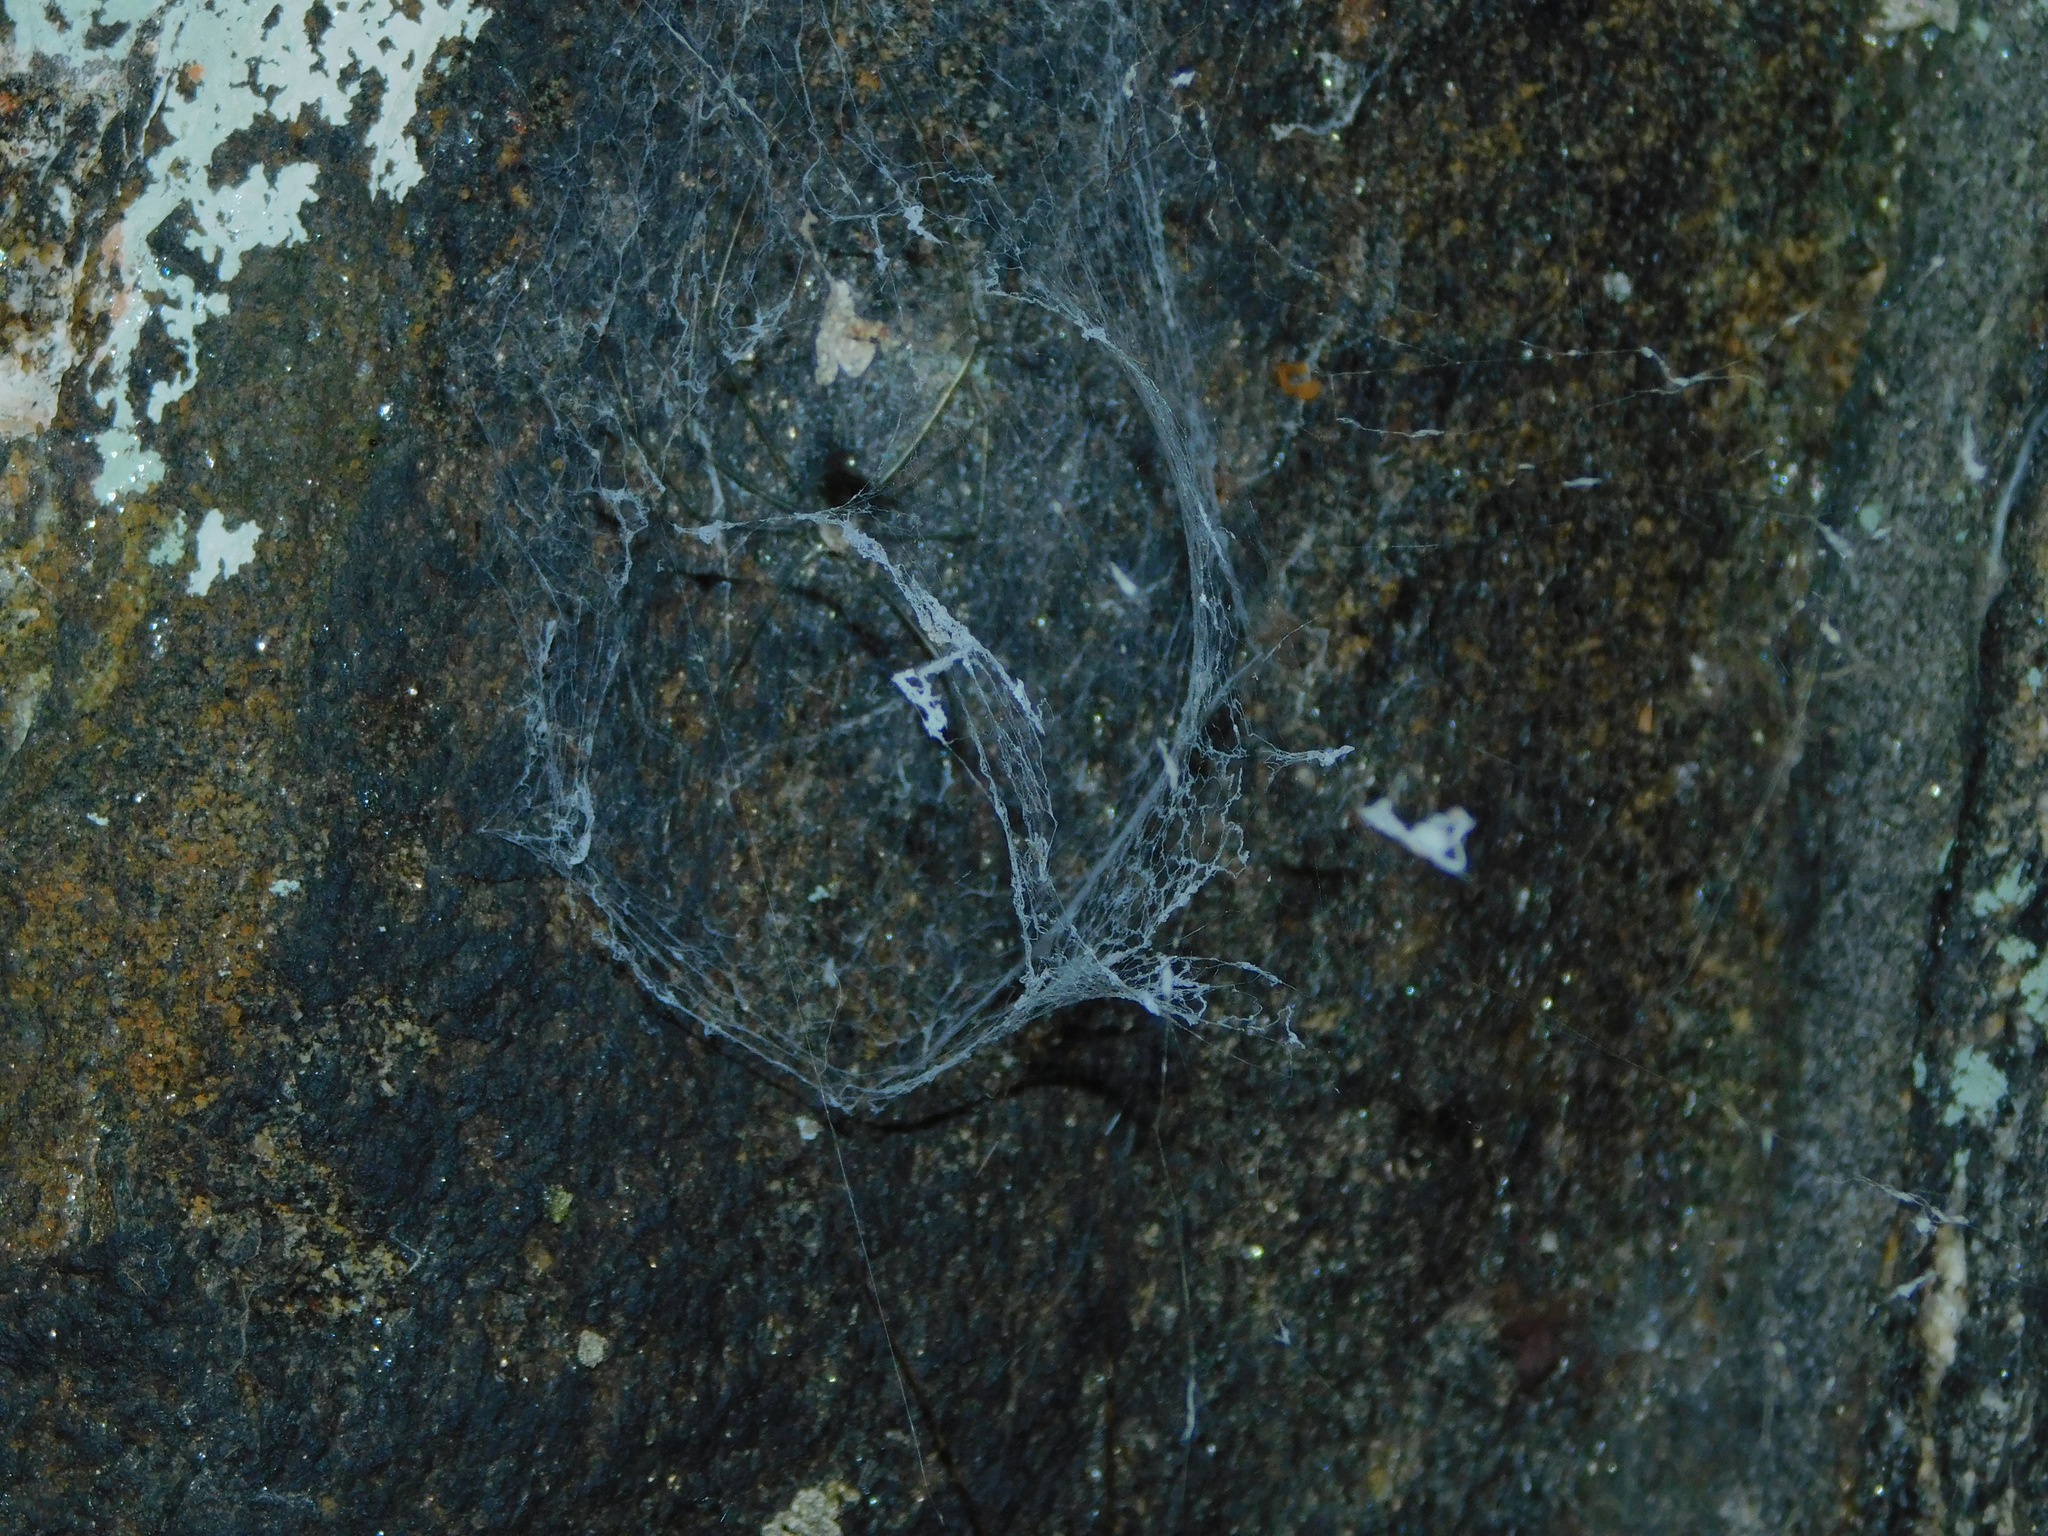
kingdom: Animalia
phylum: Arthropoda
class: Arachnida
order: Araneae
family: Hypochilidae
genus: Hypochilus
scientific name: Hypochilus pococki
